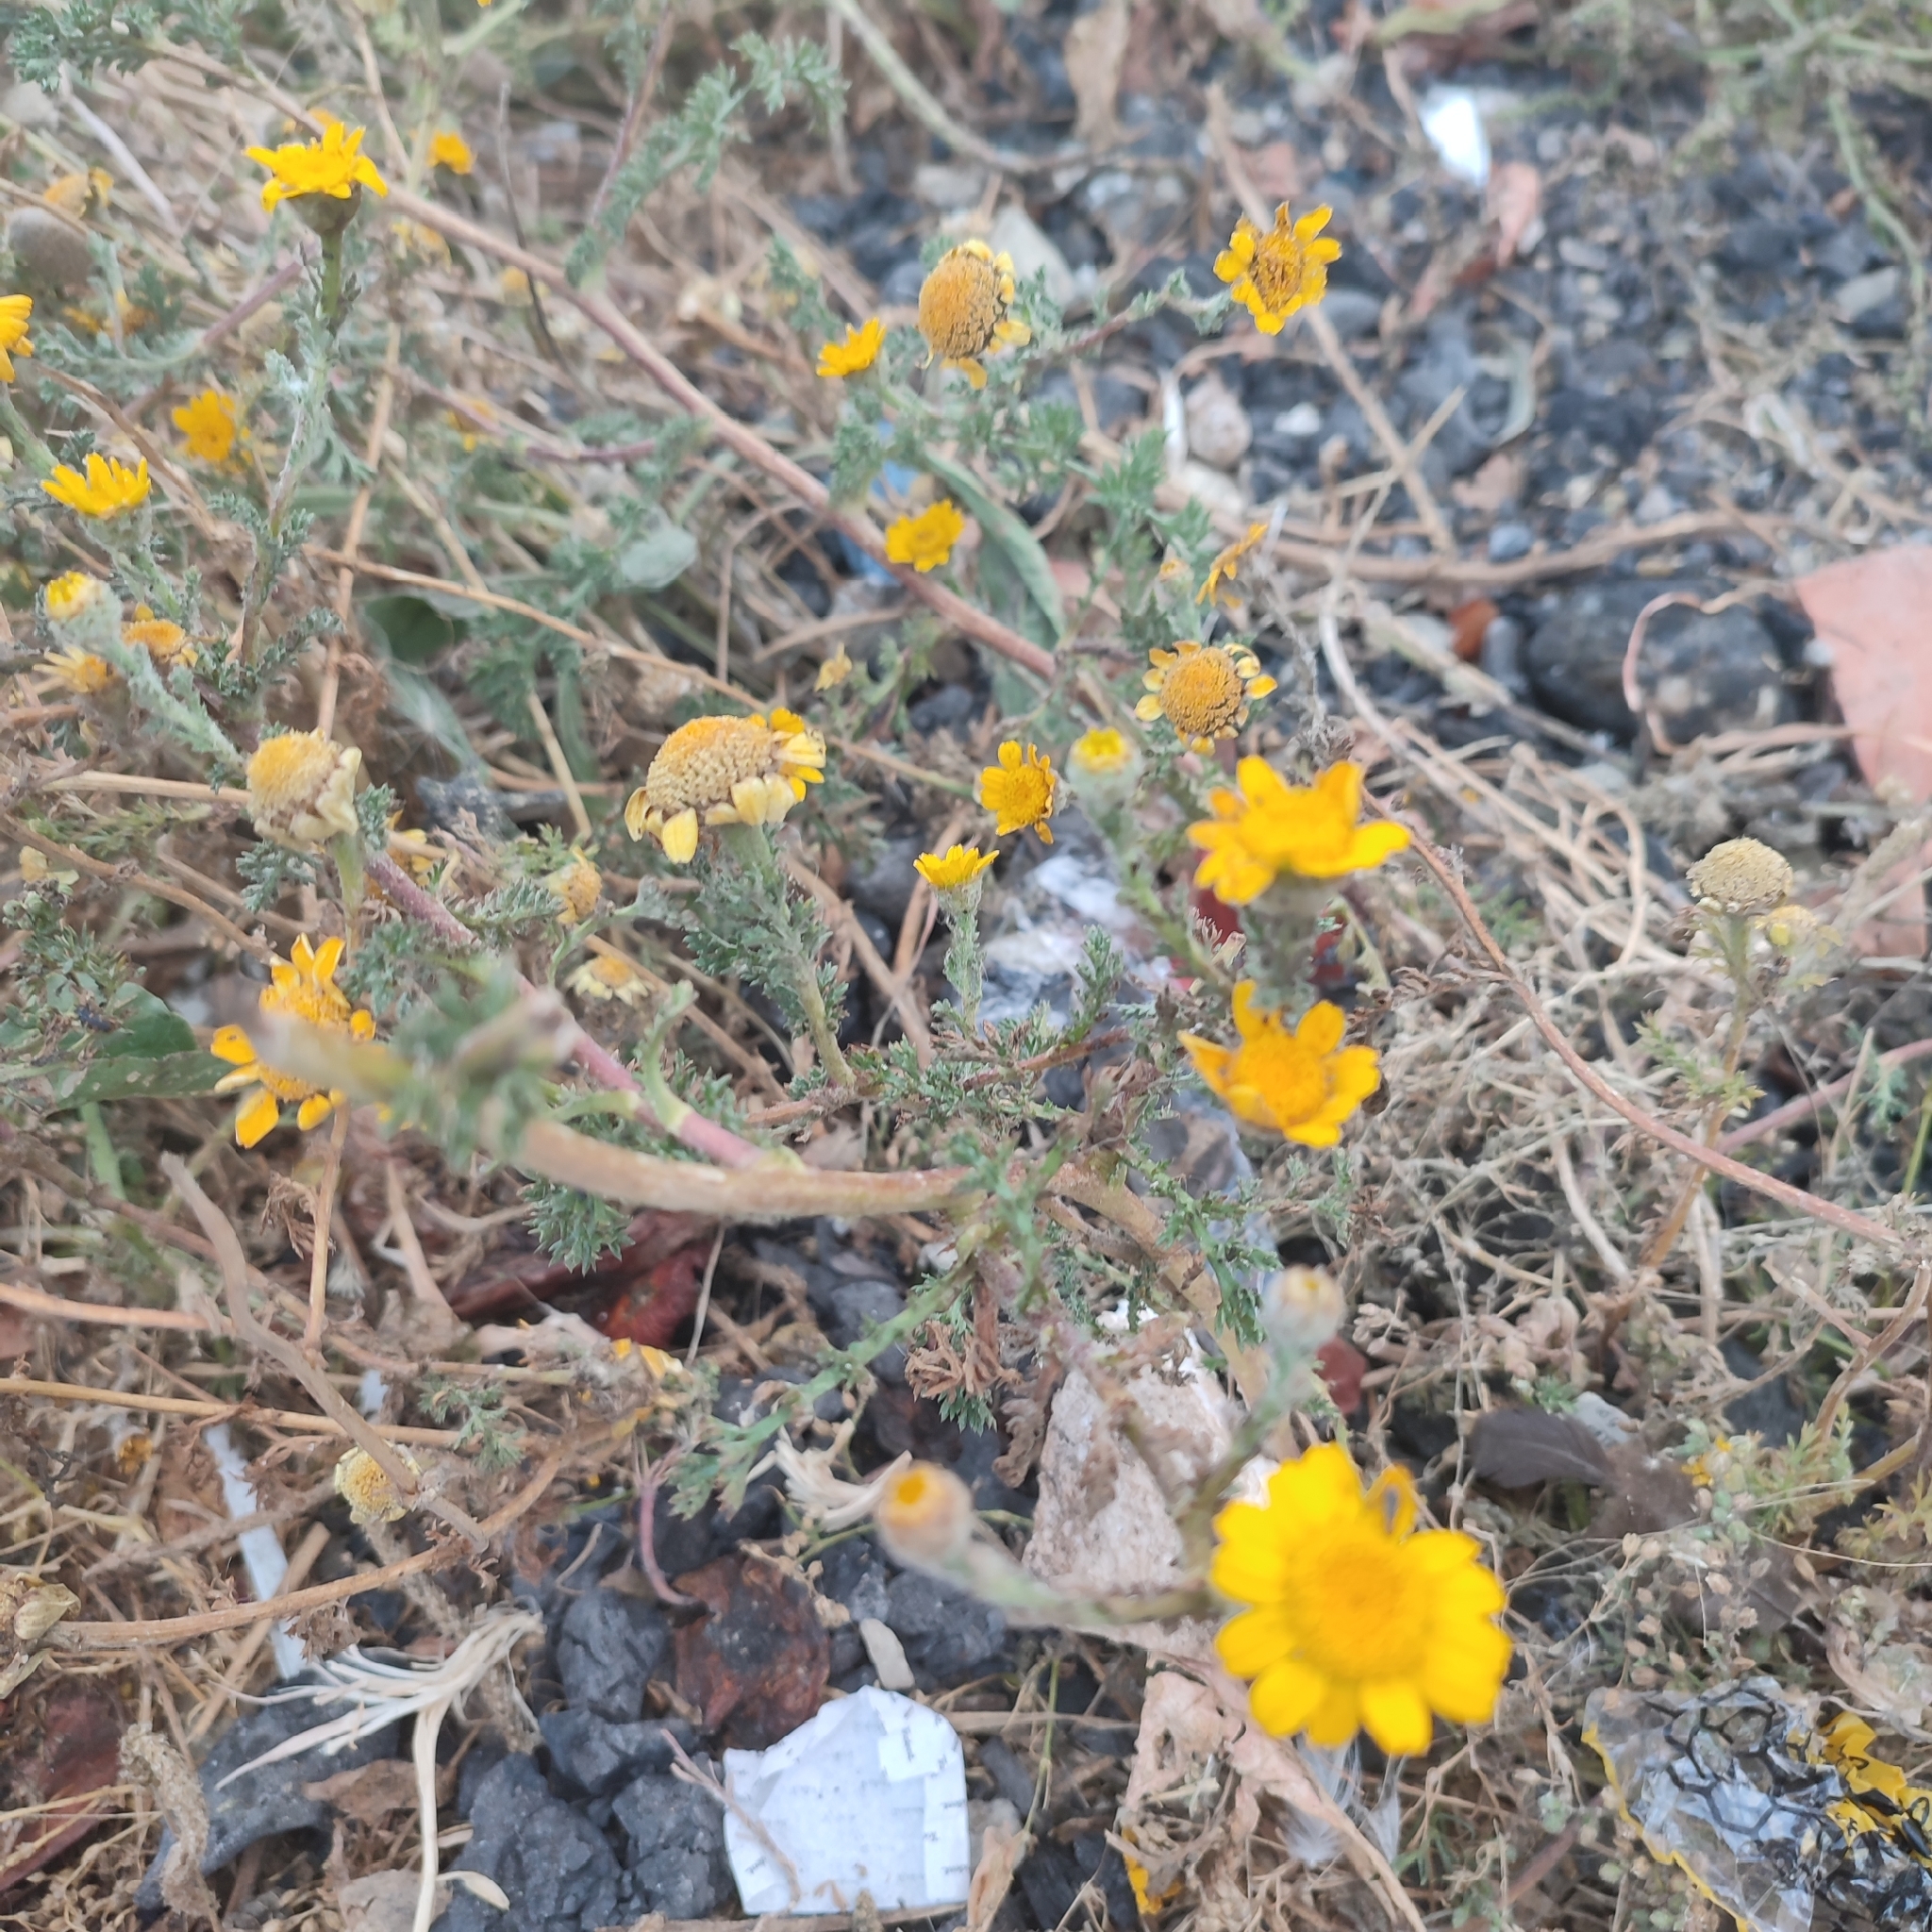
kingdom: Plantae
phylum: Tracheophyta
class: Magnoliopsida
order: Asterales
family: Asteraceae
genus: Anacyclus
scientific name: Anacyclus radiatus
